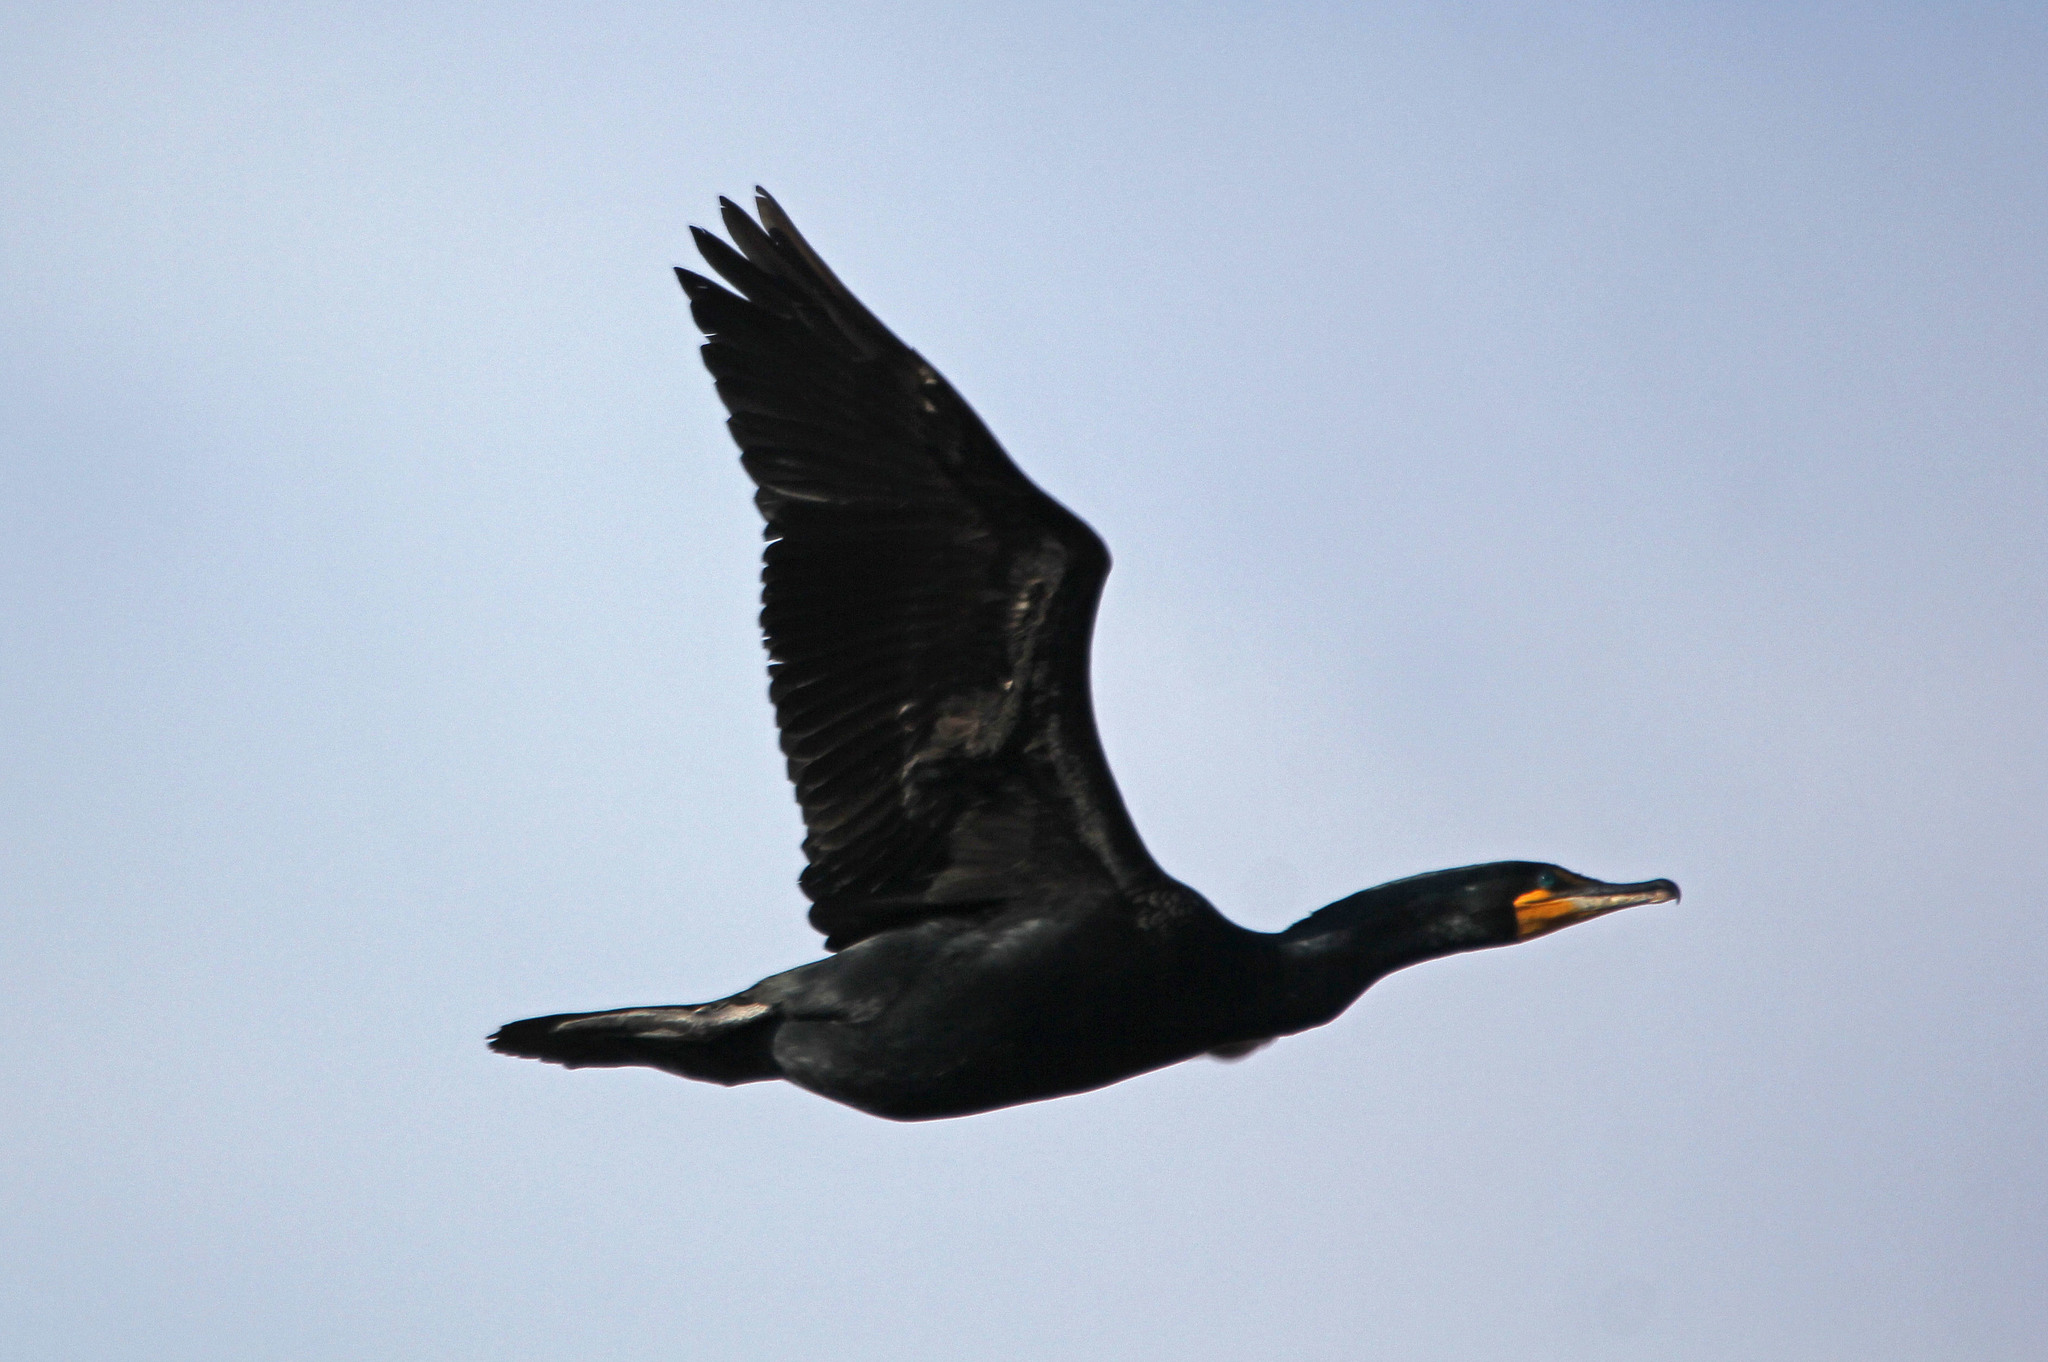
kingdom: Animalia
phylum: Chordata
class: Aves
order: Suliformes
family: Phalacrocoracidae
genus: Phalacrocorax
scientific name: Phalacrocorax auritus
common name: Double-crested cormorant
